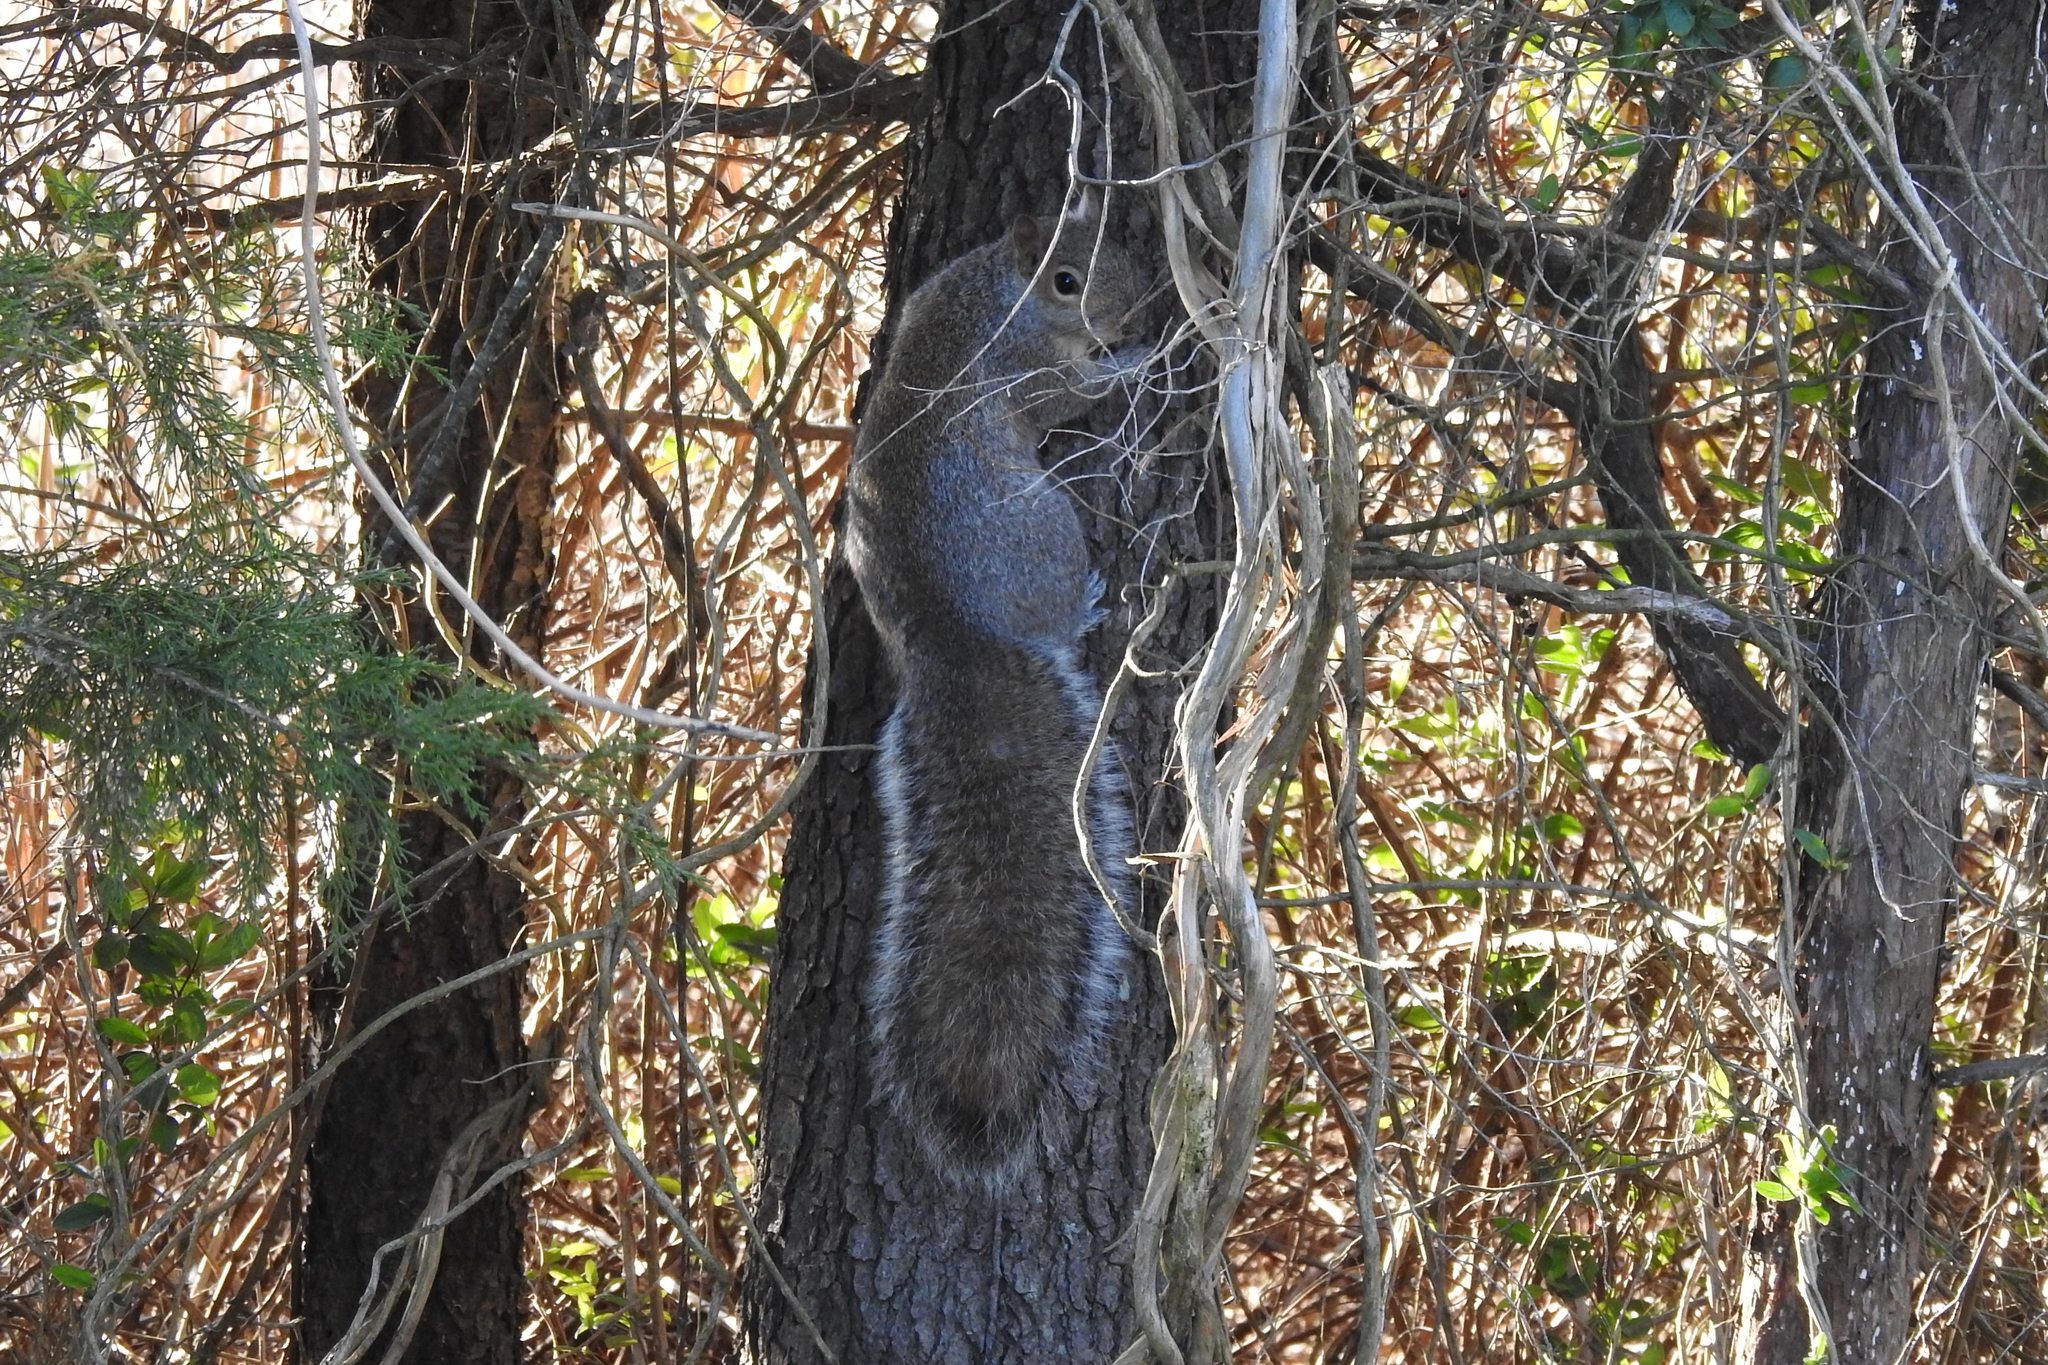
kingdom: Animalia
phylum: Chordata
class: Mammalia
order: Rodentia
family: Sciuridae
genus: Sciurus
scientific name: Sciurus carolinensis
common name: Eastern gray squirrel
